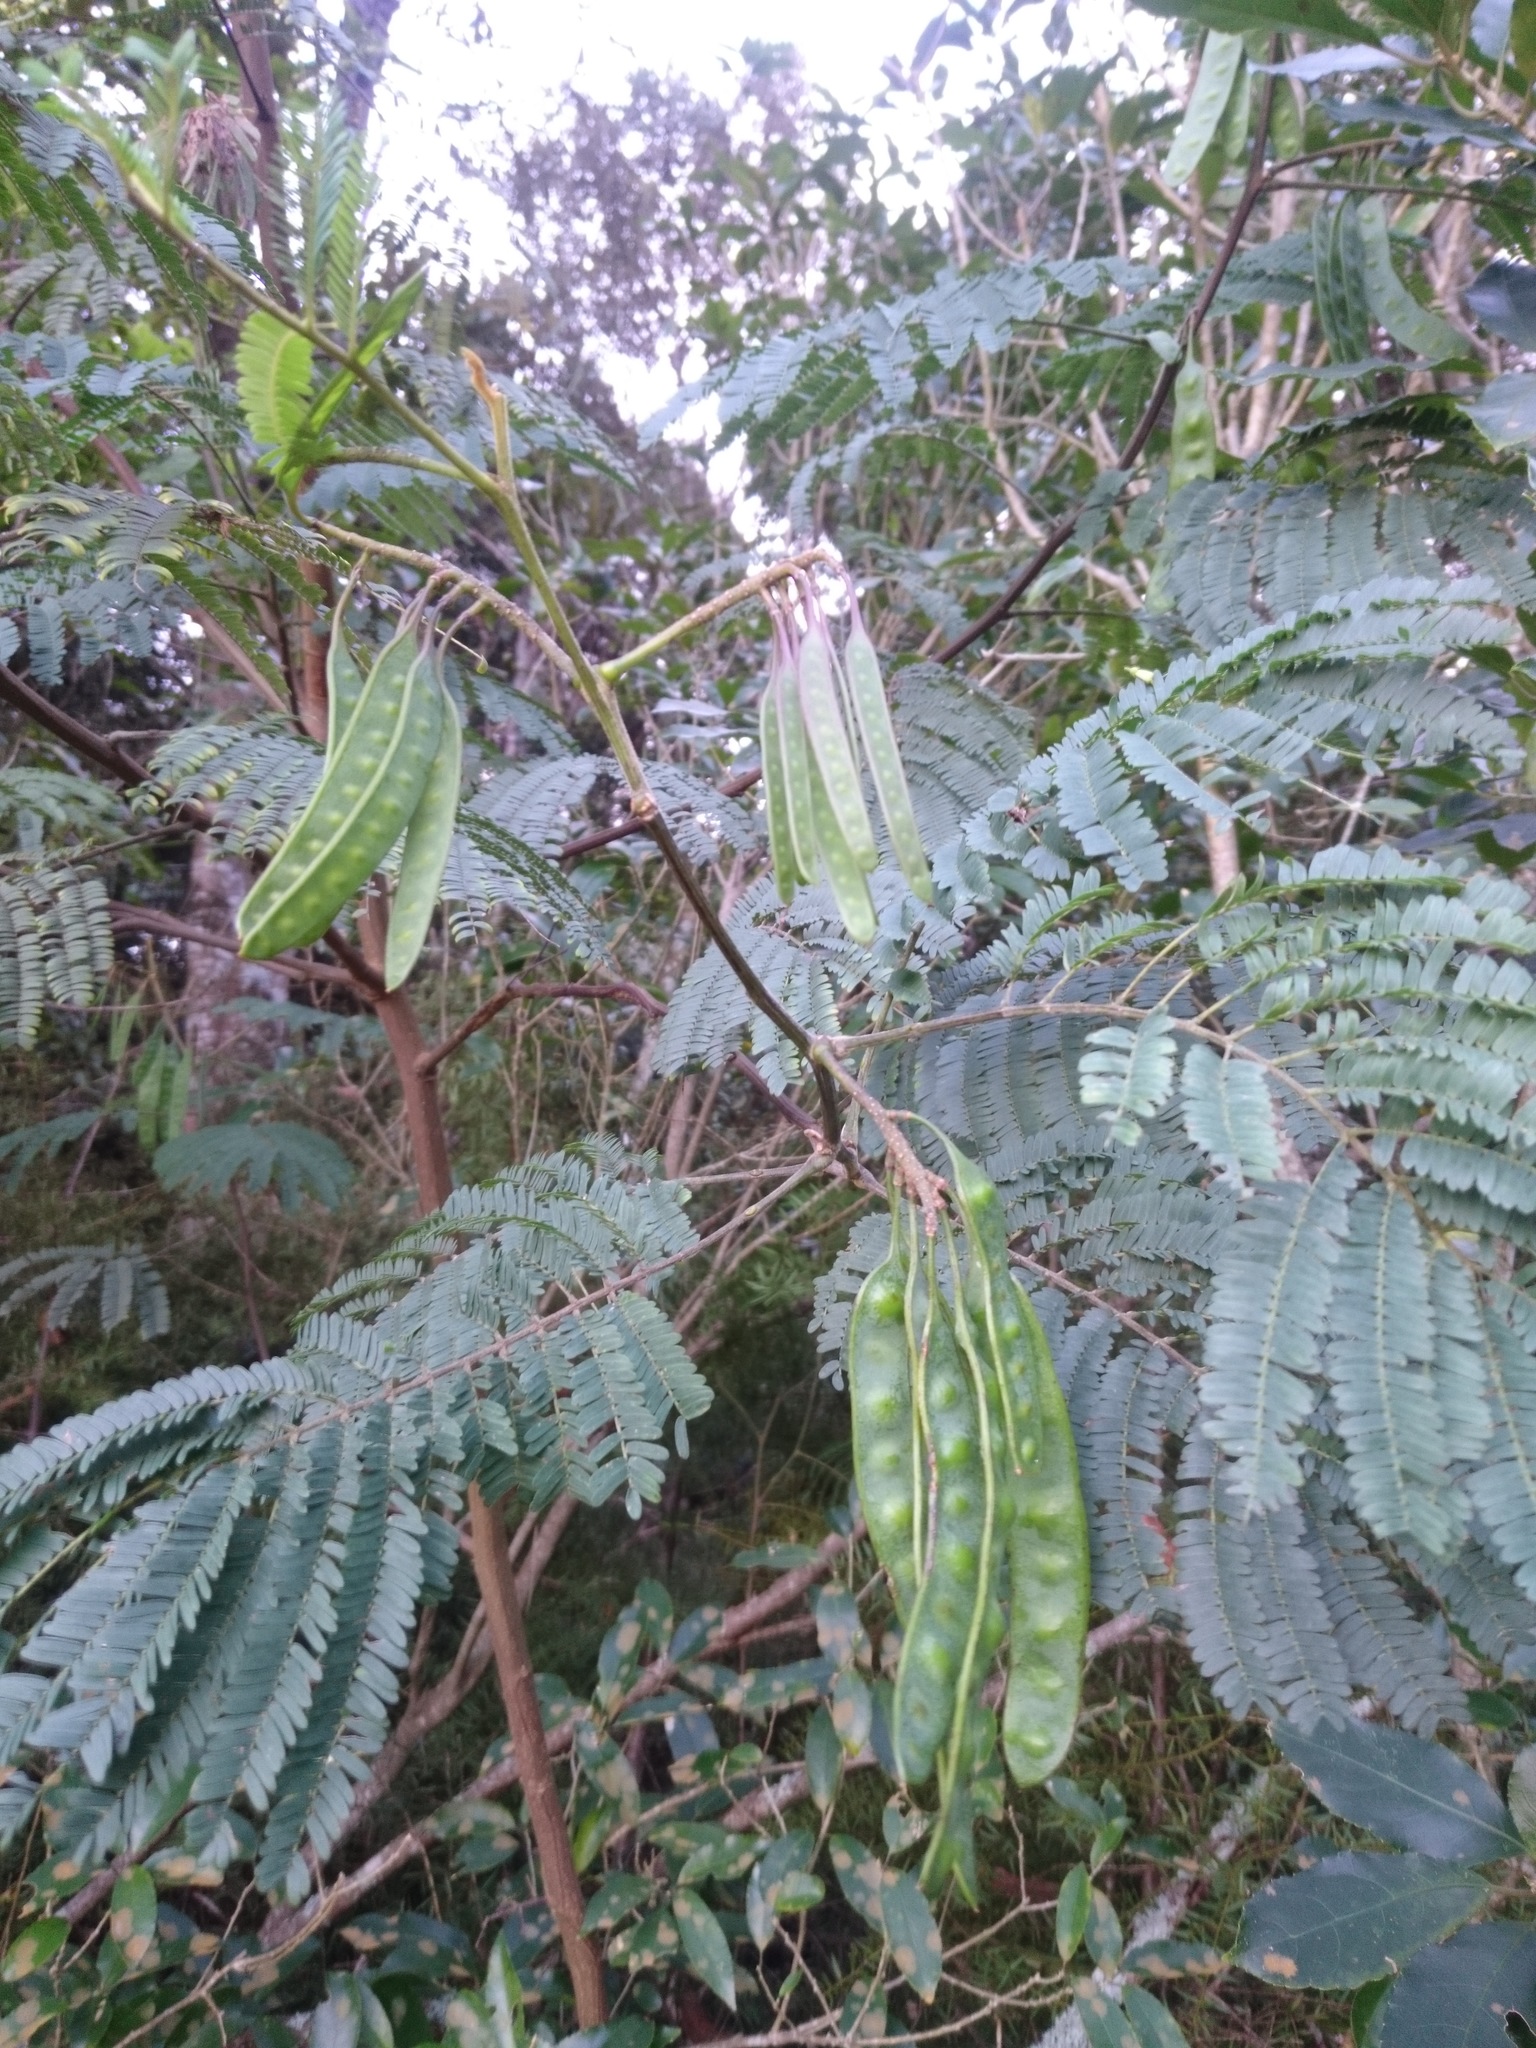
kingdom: Plantae
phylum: Tracheophyta
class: Magnoliopsida
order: Fabales
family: Fabaceae
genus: Paraserianthes
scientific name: Paraserianthes lophantha
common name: Plume albizia
